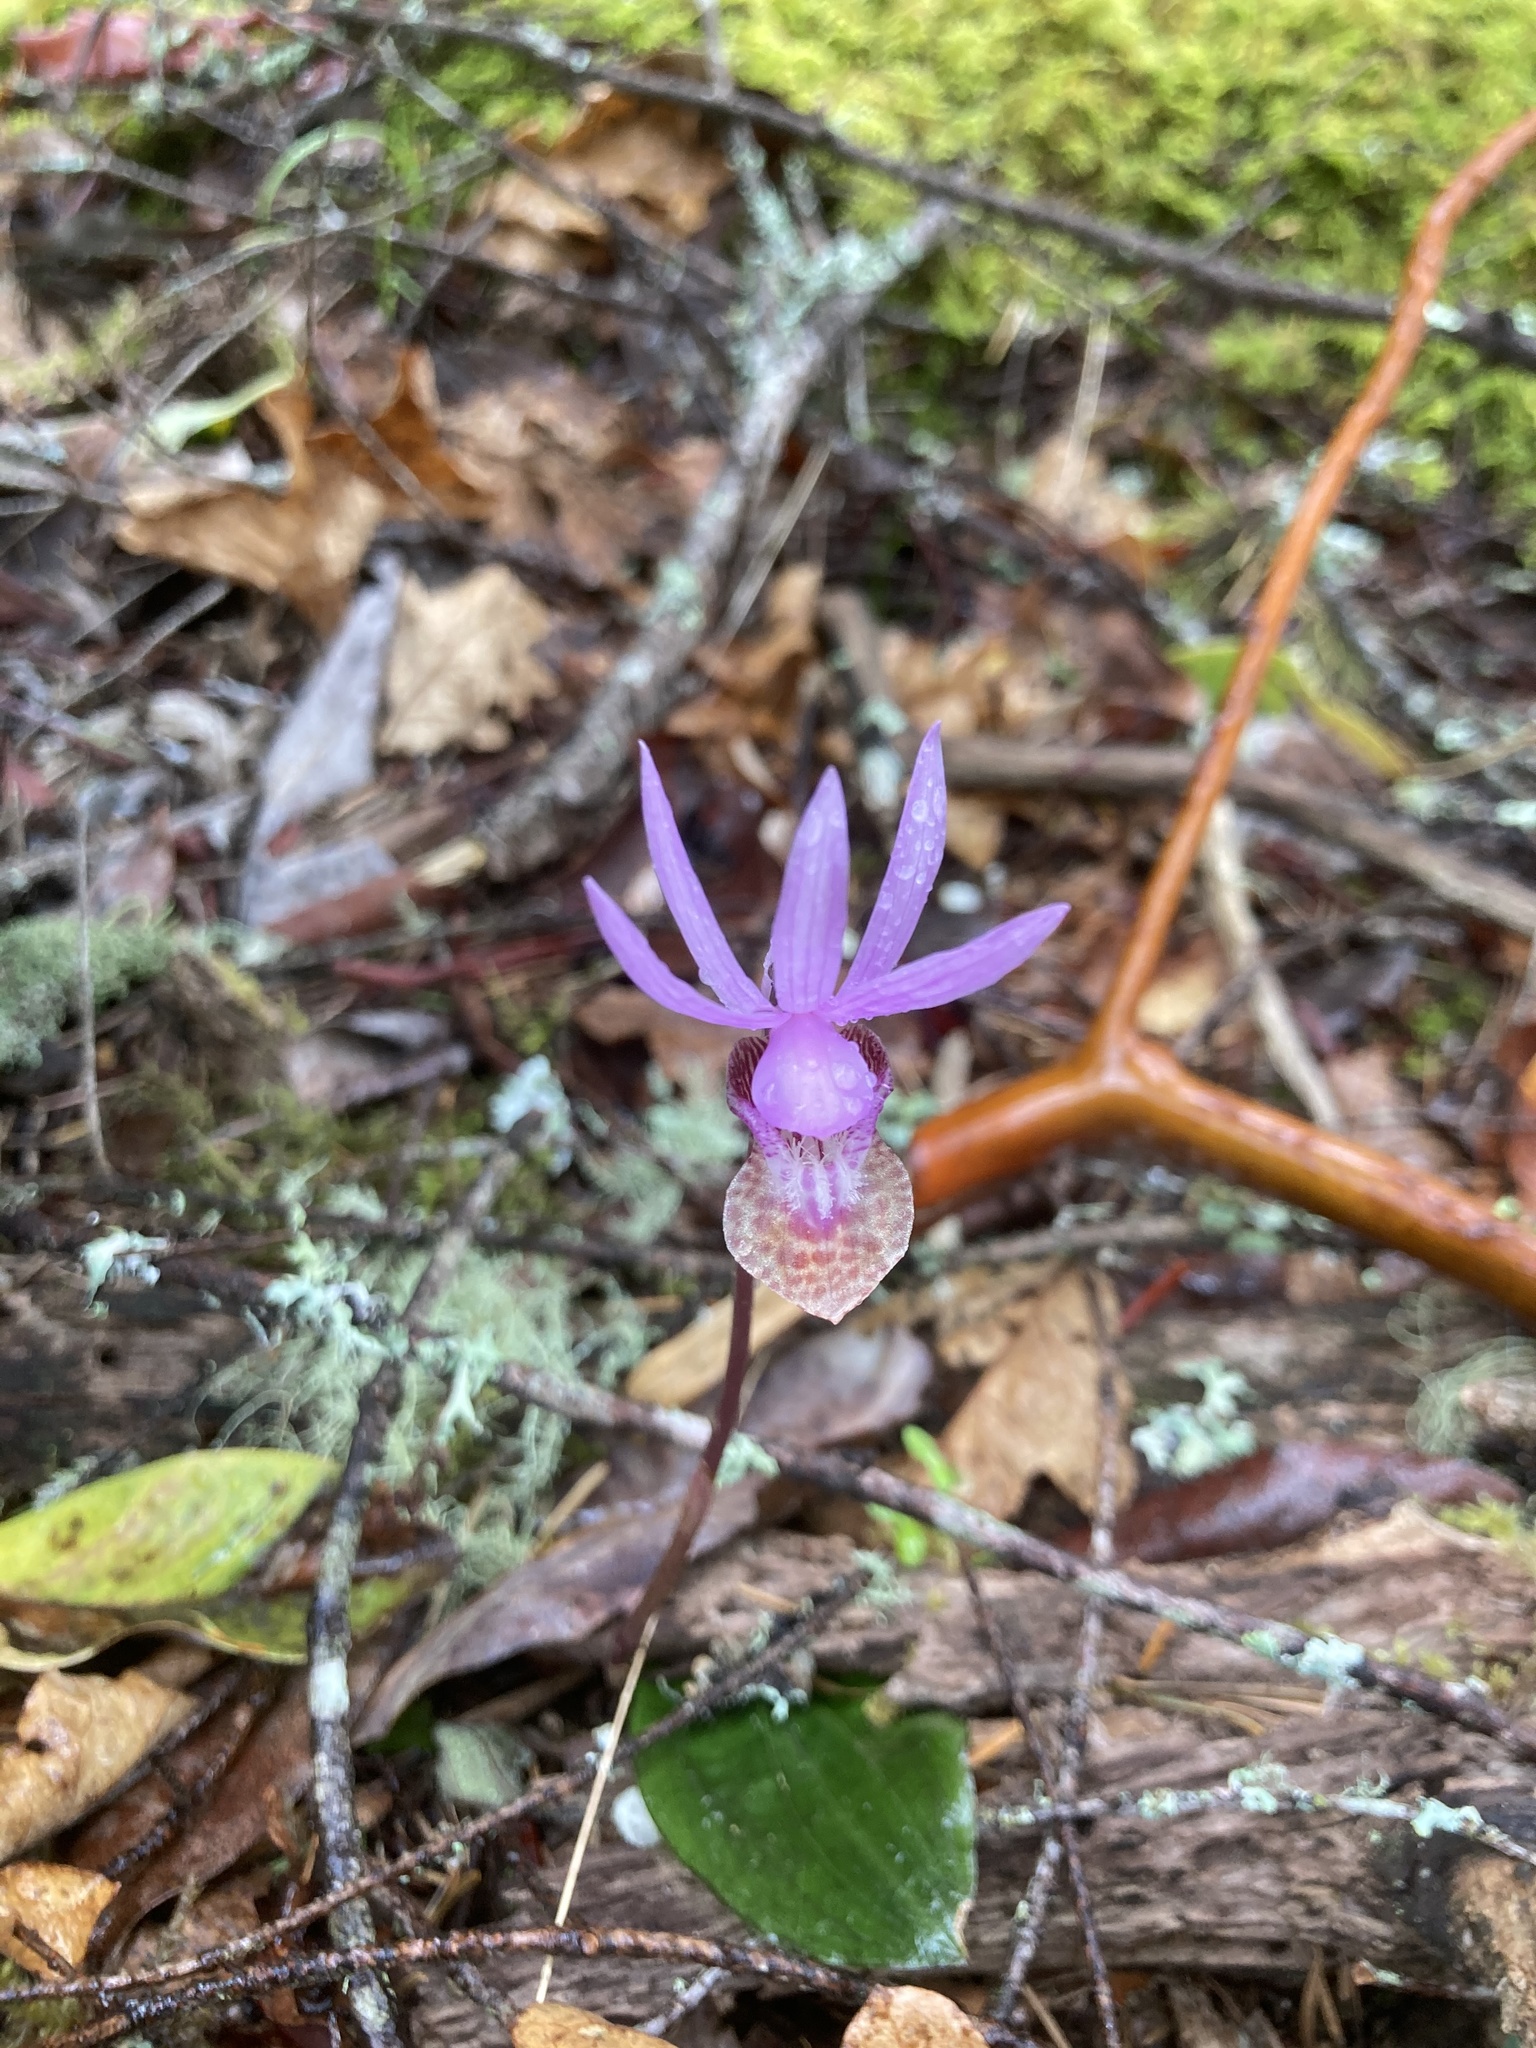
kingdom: Plantae
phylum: Tracheophyta
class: Liliopsida
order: Asparagales
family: Orchidaceae
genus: Calypso
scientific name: Calypso bulbosa
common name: Calypso
